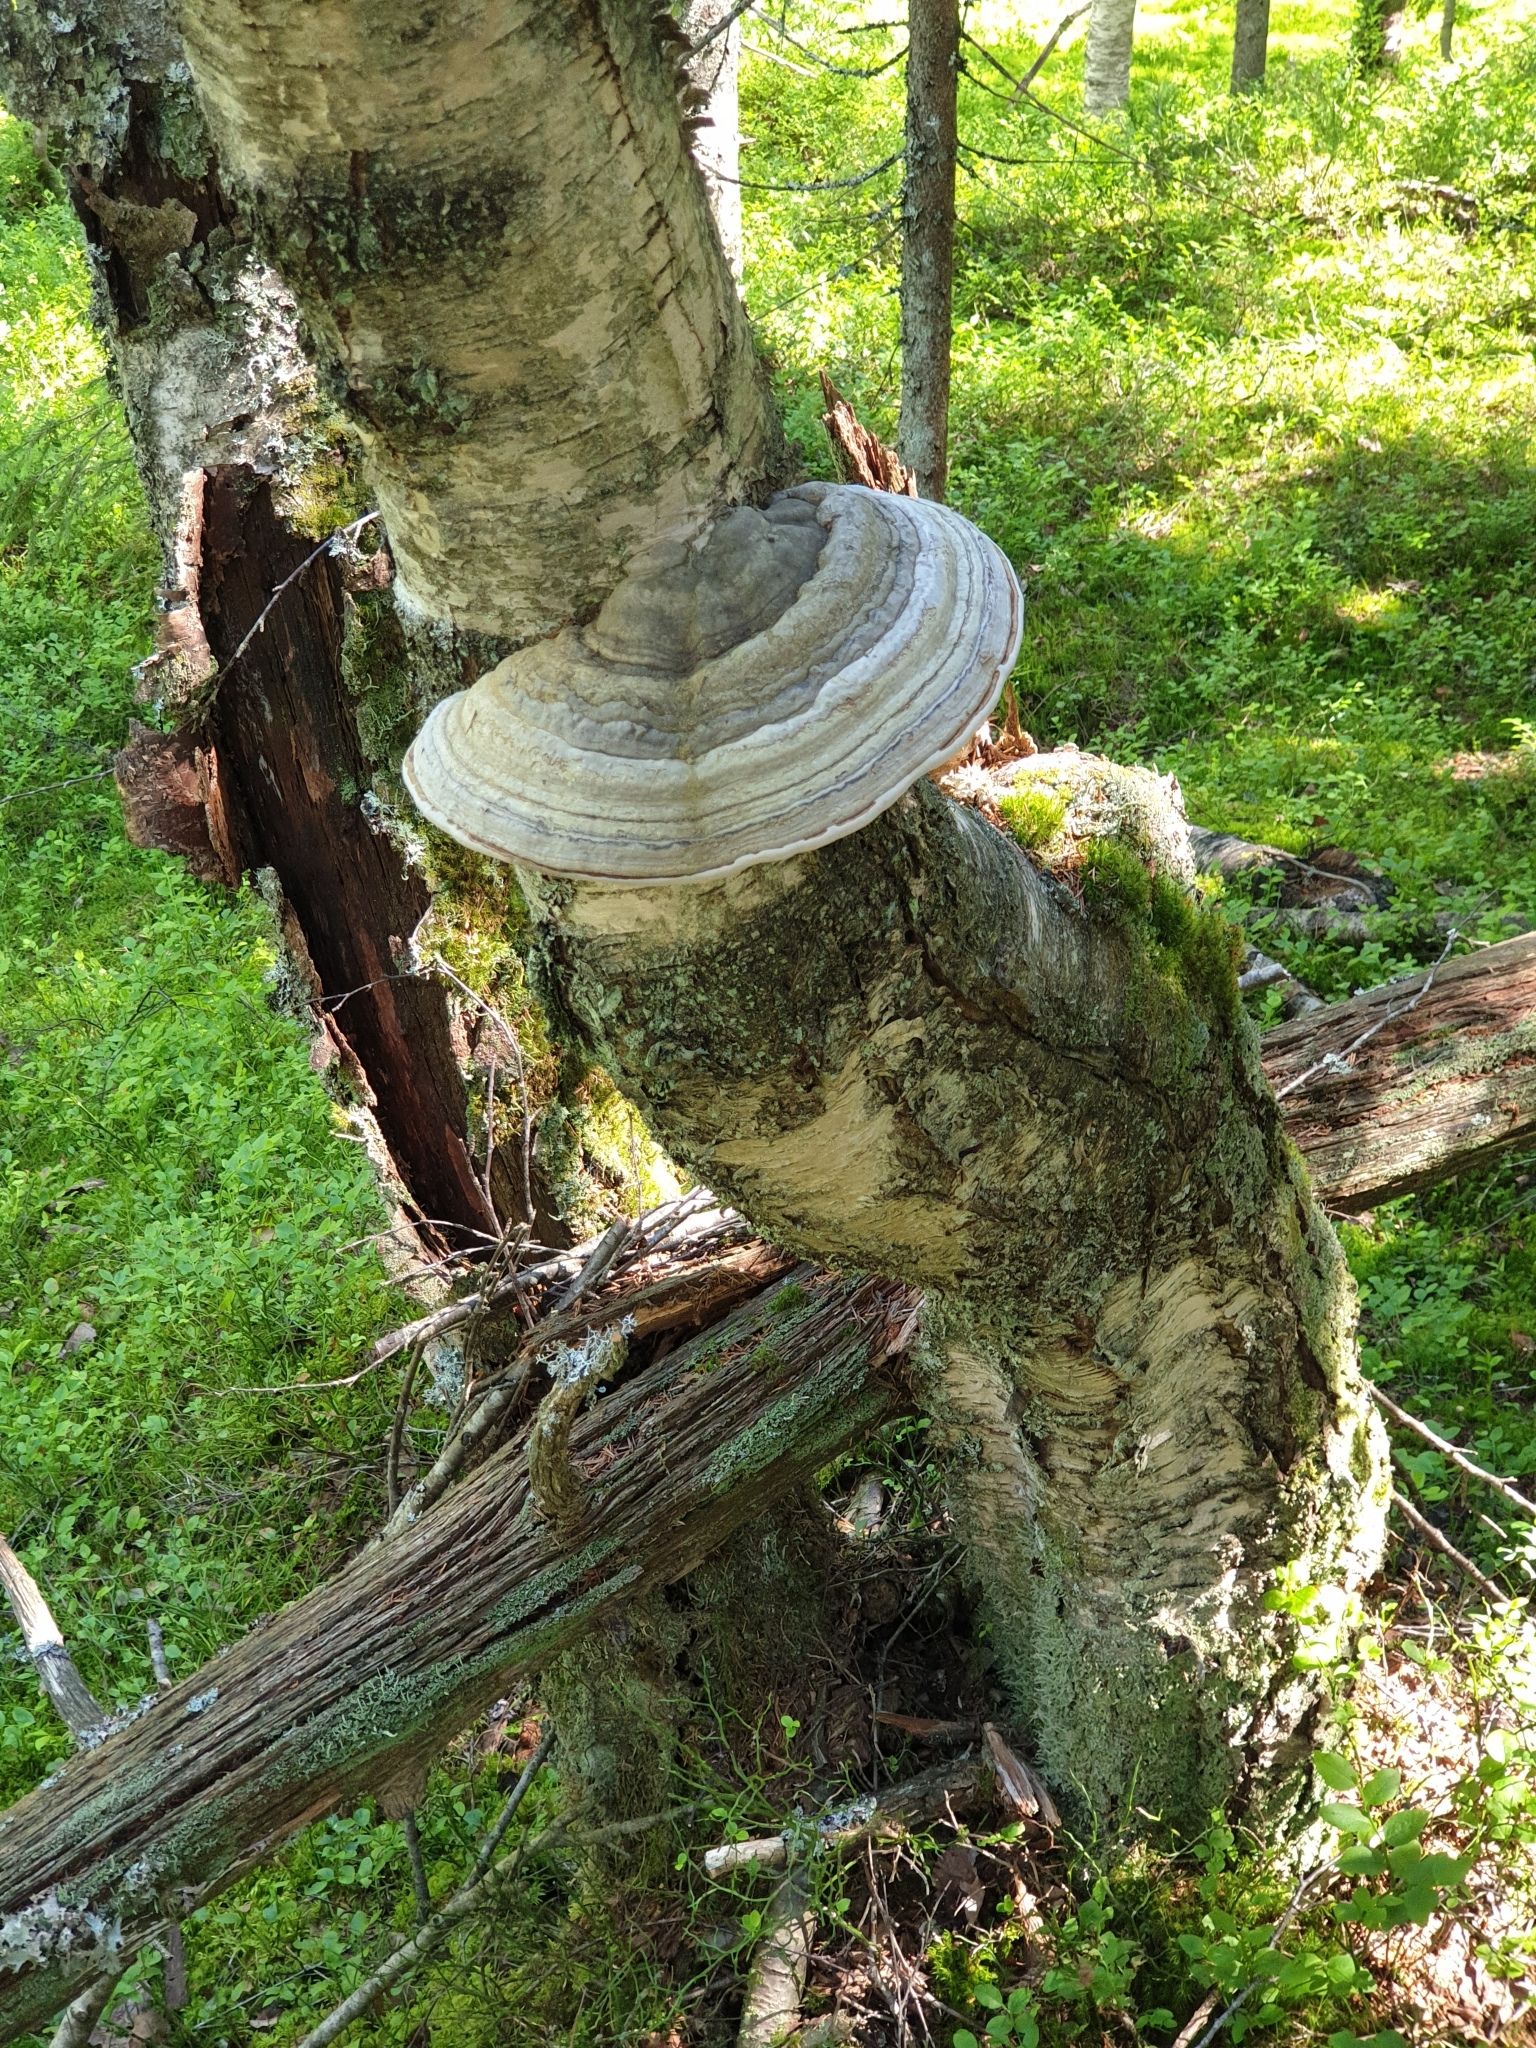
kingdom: Fungi
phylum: Basidiomycota
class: Agaricomycetes
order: Polyporales
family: Polyporaceae
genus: Fomes
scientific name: Fomes fomentarius
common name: Hoof fungus
